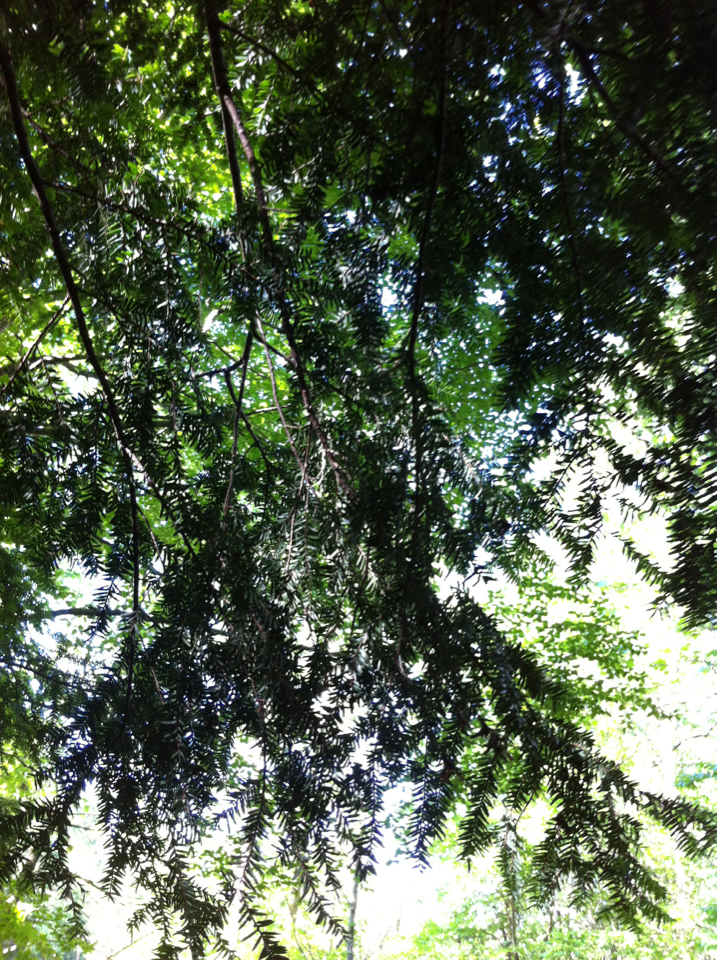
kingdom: Plantae
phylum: Tracheophyta
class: Pinopsida
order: Pinales
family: Pinaceae
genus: Tsuga
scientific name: Tsuga canadensis
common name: Eastern hemlock
